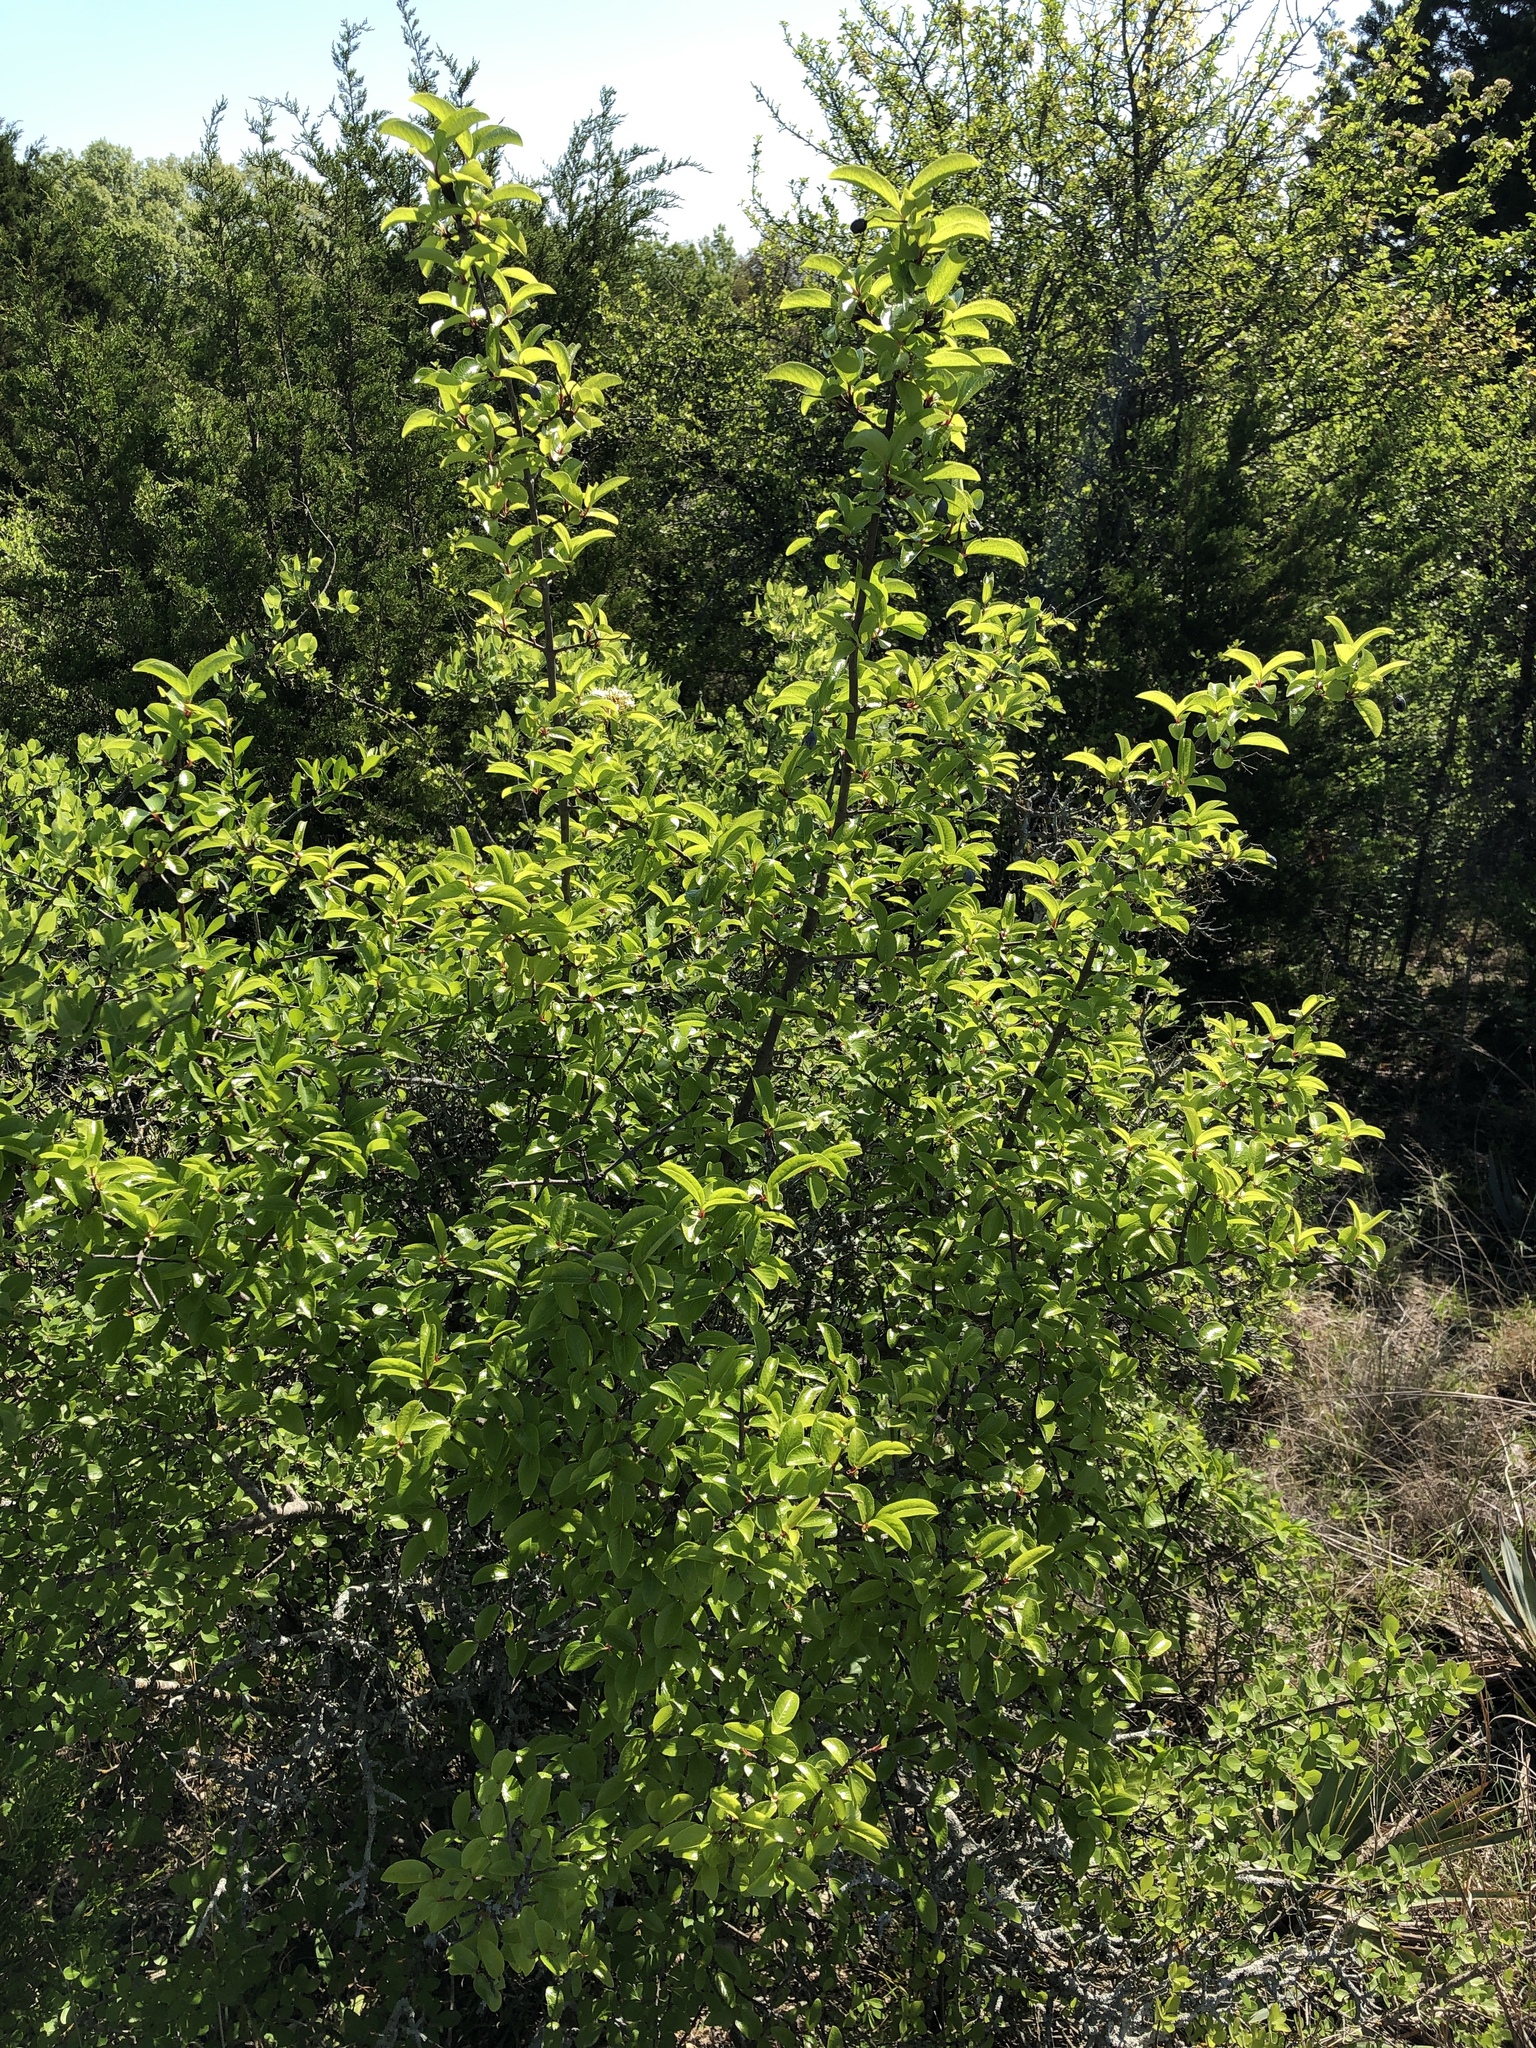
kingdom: Plantae
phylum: Tracheophyta
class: Magnoliopsida
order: Dipsacales
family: Viburnaceae
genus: Viburnum
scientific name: Viburnum rufidulum
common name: Blue haw
